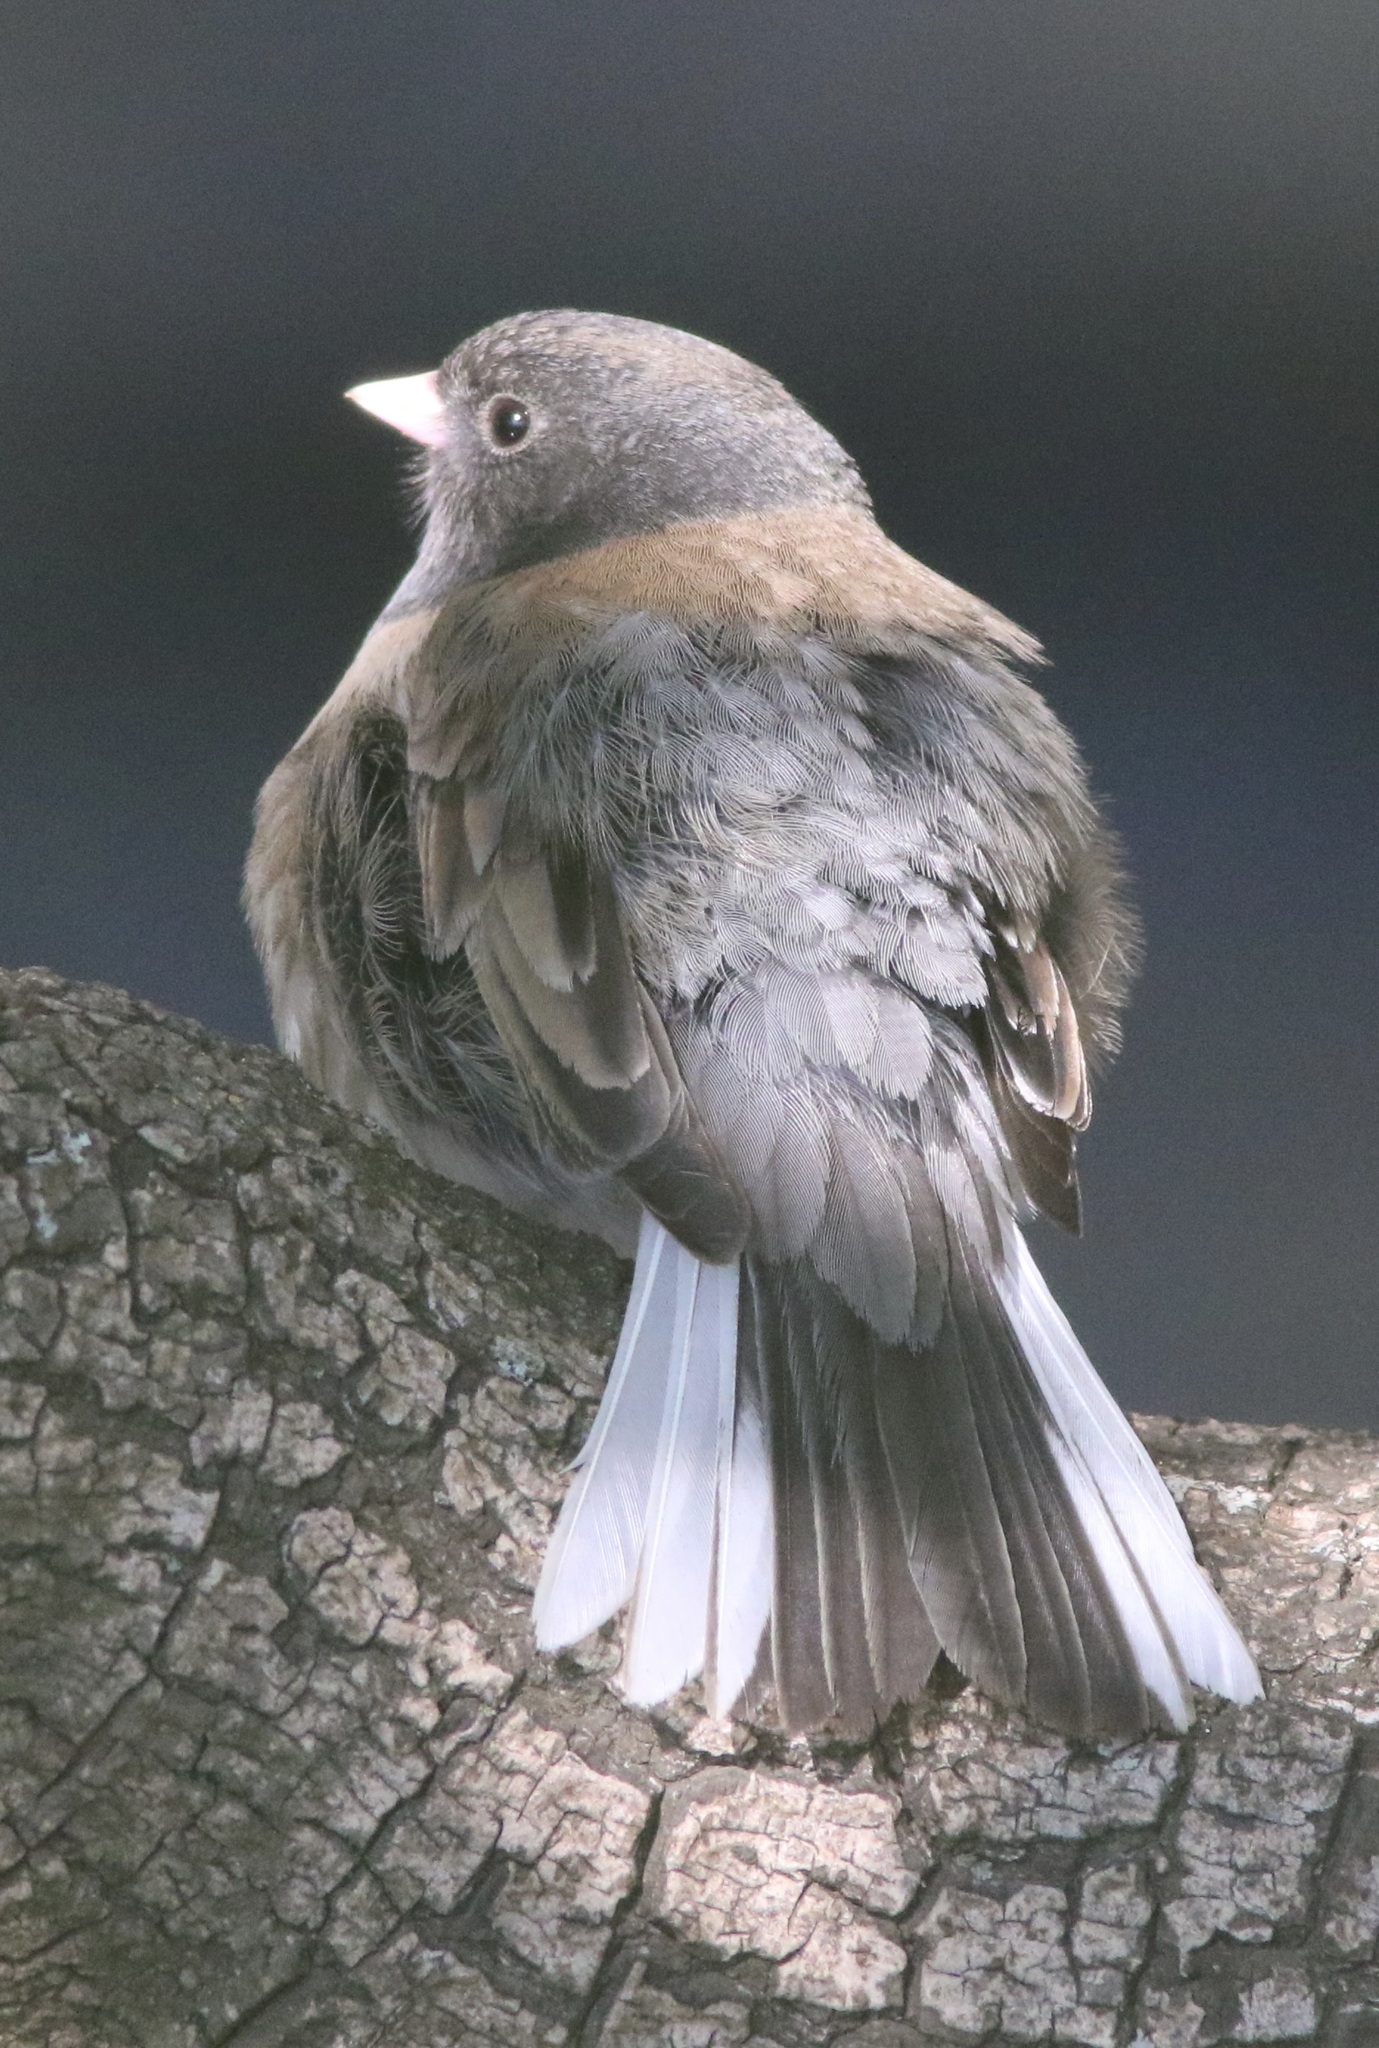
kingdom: Animalia
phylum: Chordata
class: Aves
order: Passeriformes
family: Passerellidae
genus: Junco
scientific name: Junco hyemalis
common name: Dark-eyed junco
